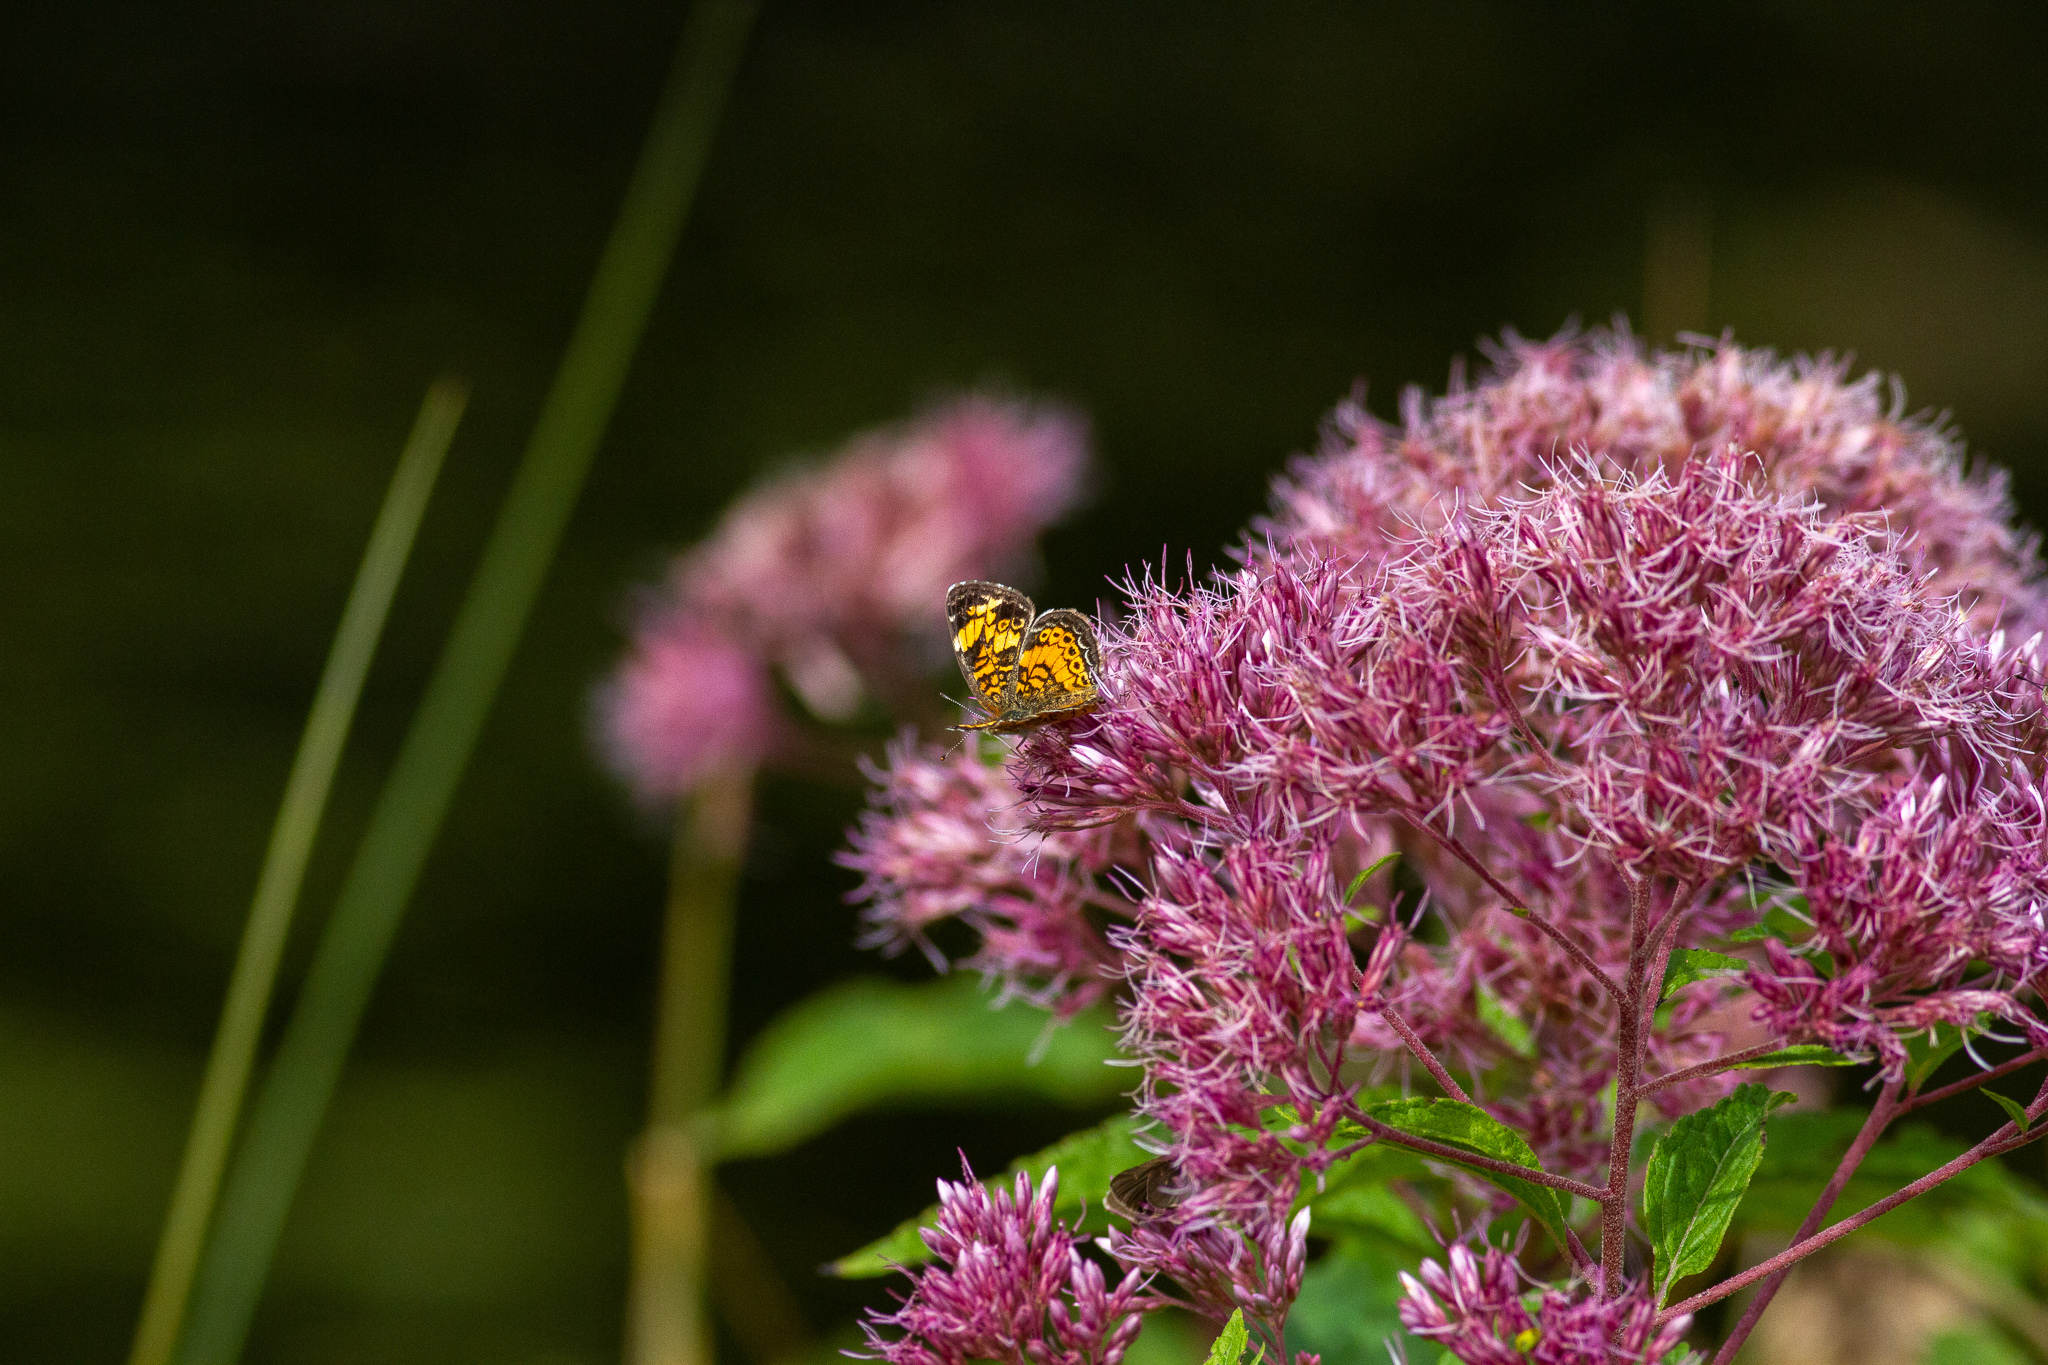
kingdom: Animalia
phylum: Arthropoda
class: Insecta
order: Lepidoptera
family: Nymphalidae
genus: Phyciodes
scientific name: Phyciodes tharos
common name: Pearl crescent
